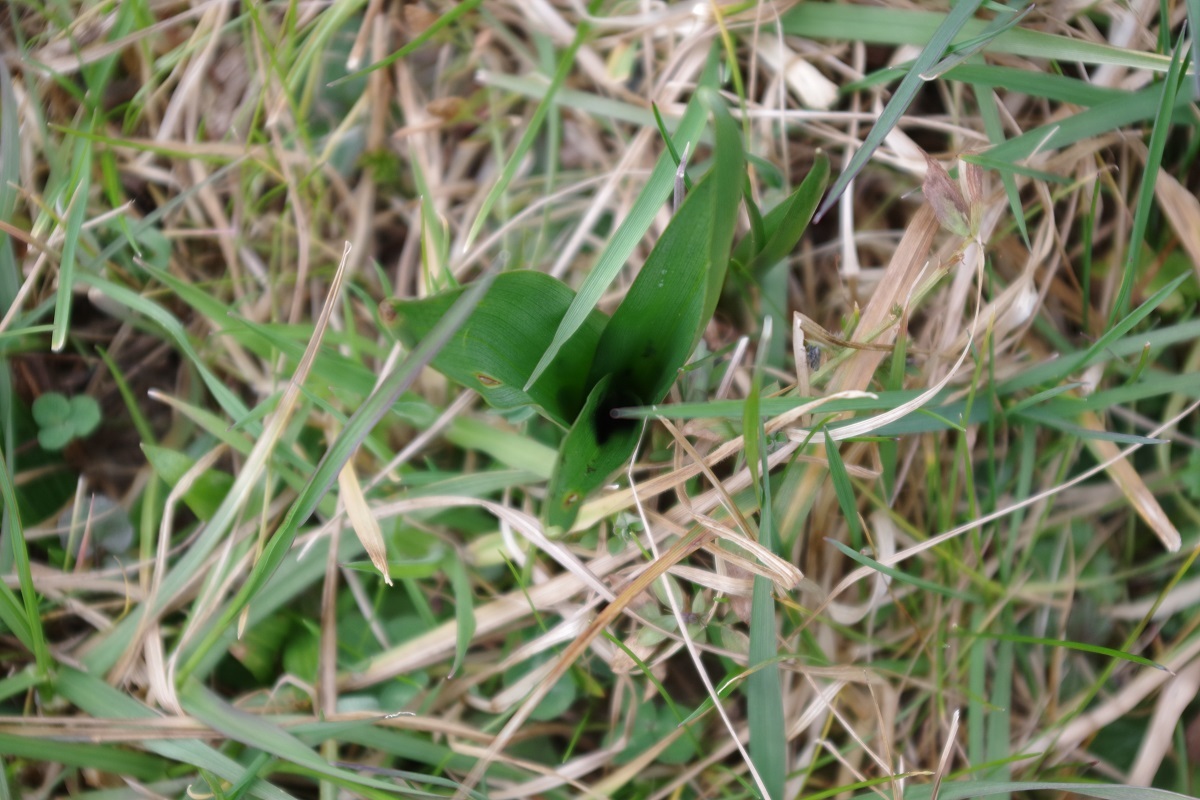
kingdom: Plantae
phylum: Tracheophyta
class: Liliopsida
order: Liliales
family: Colchicaceae
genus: Colchicum
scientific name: Colchicum autumnale
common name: Autumn crocus
